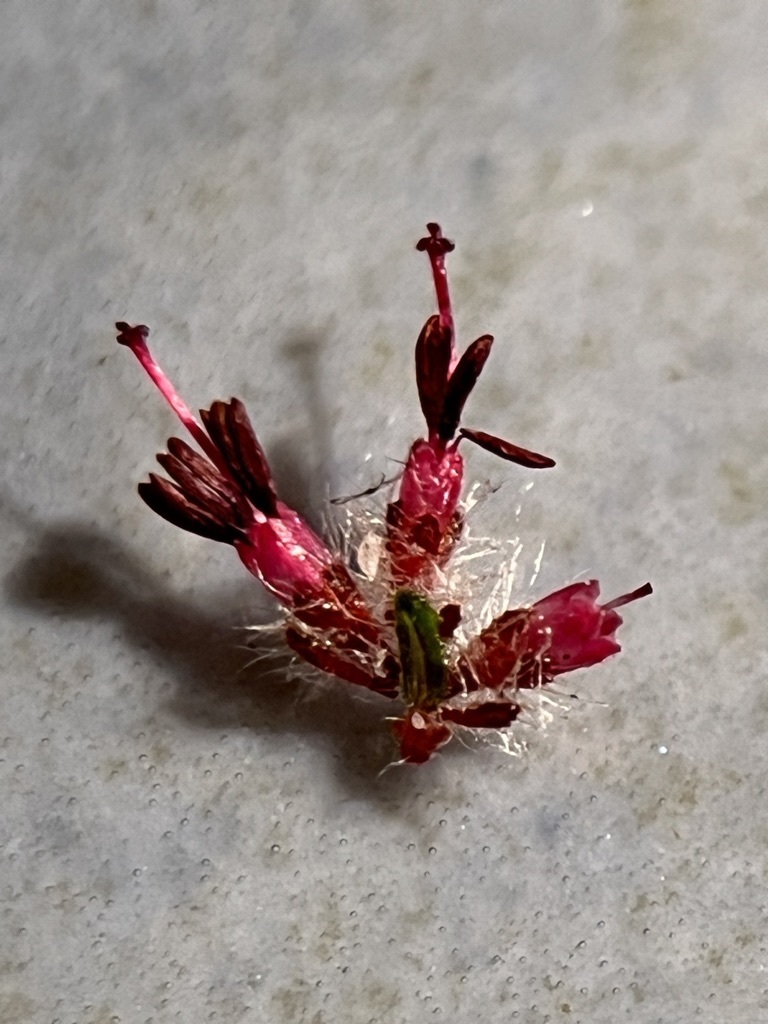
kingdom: Plantae
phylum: Tracheophyta
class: Magnoliopsida
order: Ericales
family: Ericaceae
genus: Erica
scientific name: Erica erinus
